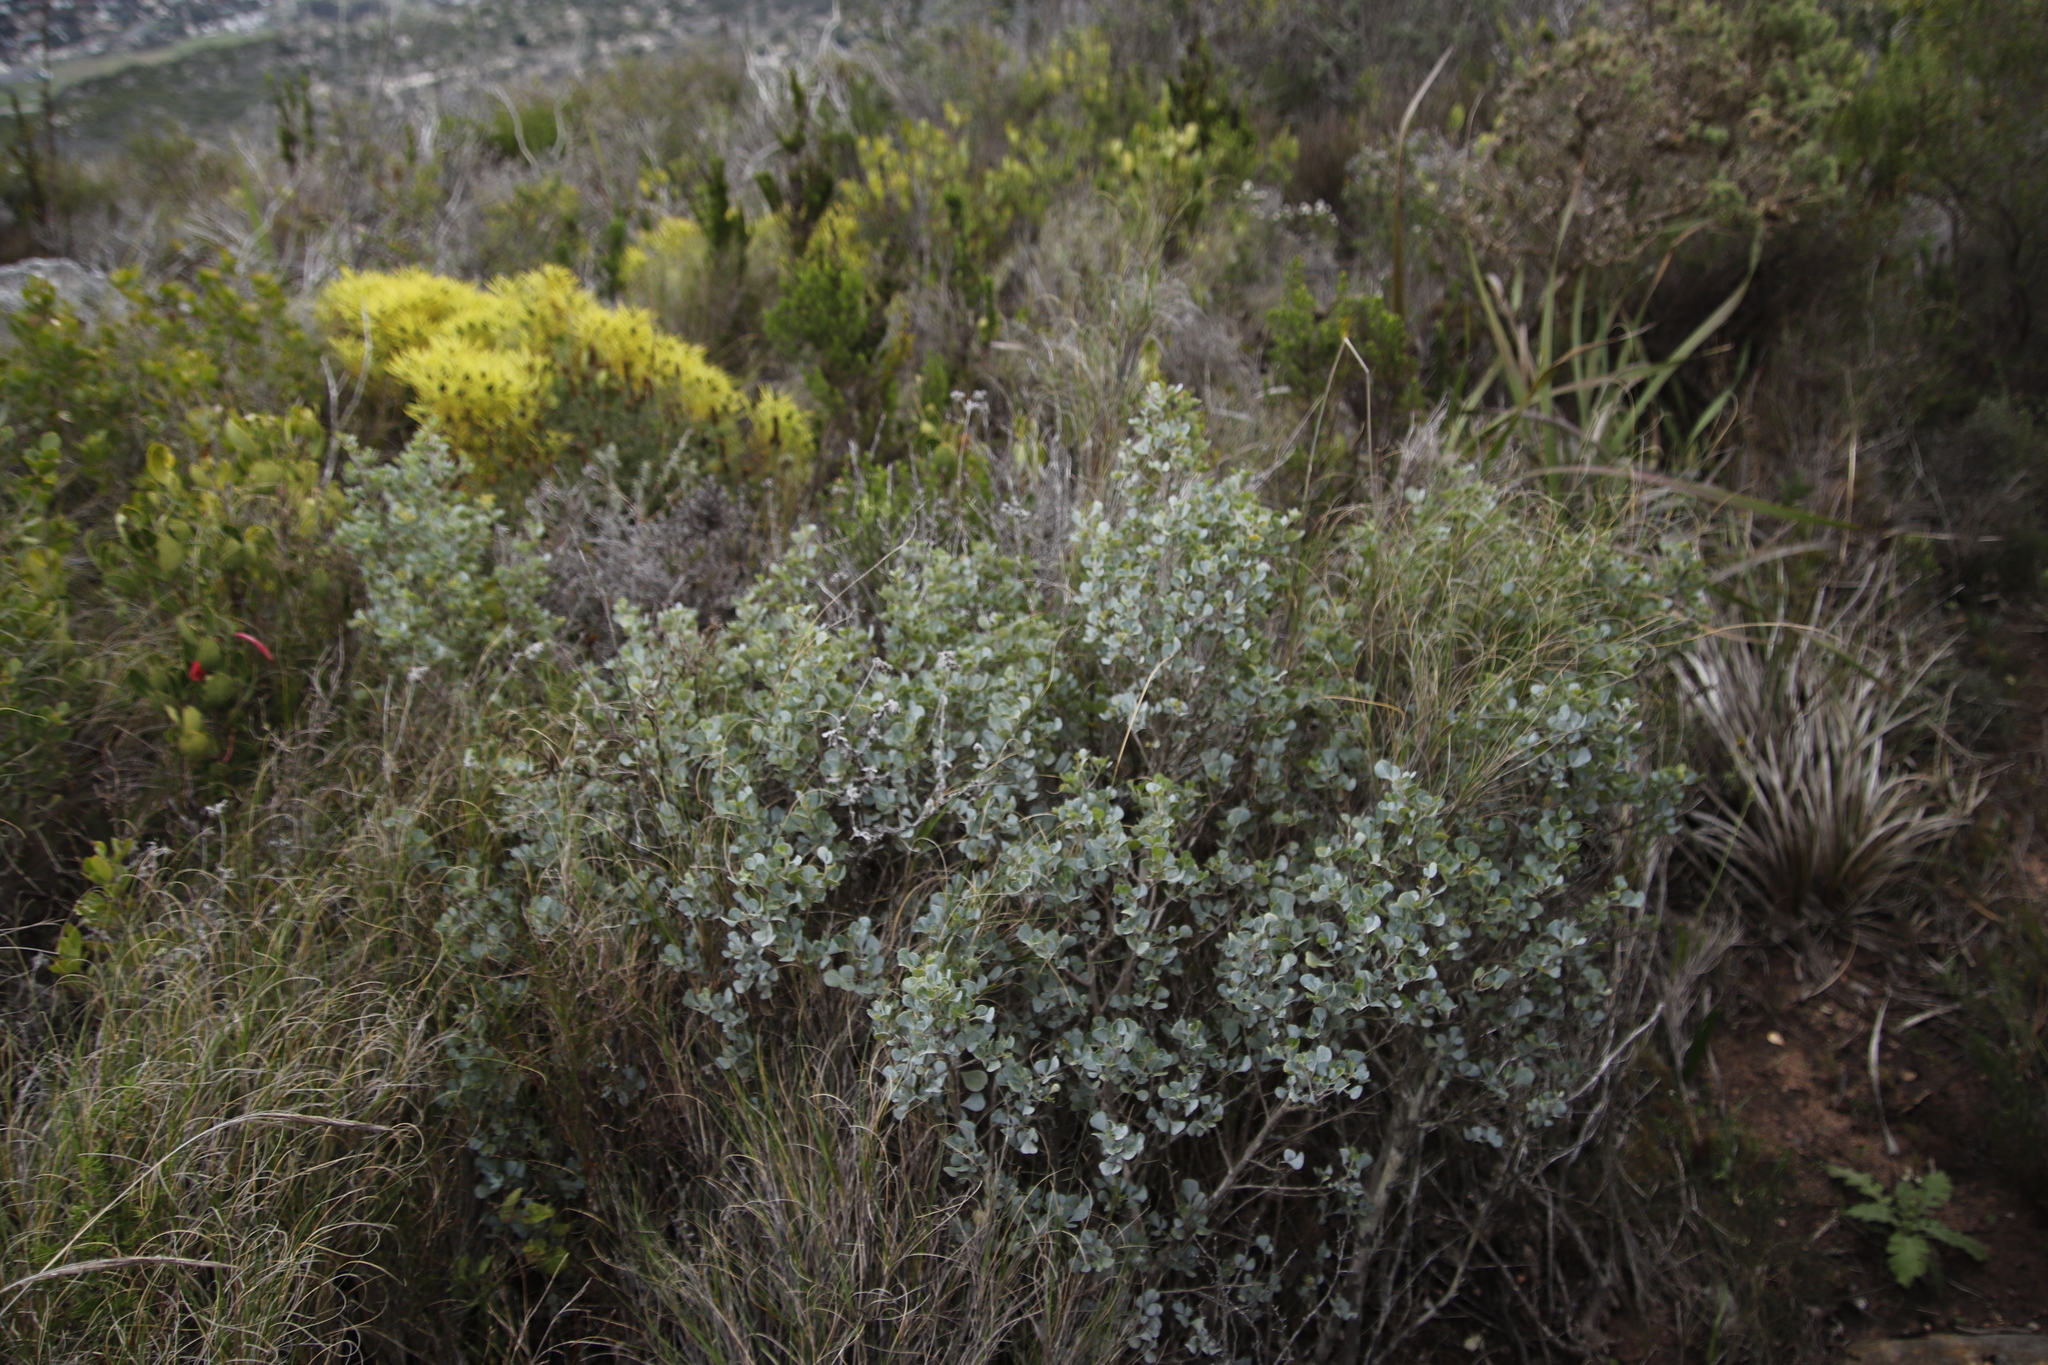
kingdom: Plantae
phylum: Tracheophyta
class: Magnoliopsida
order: Sapindales
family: Anacardiaceae
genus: Searsia
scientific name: Searsia glauca
